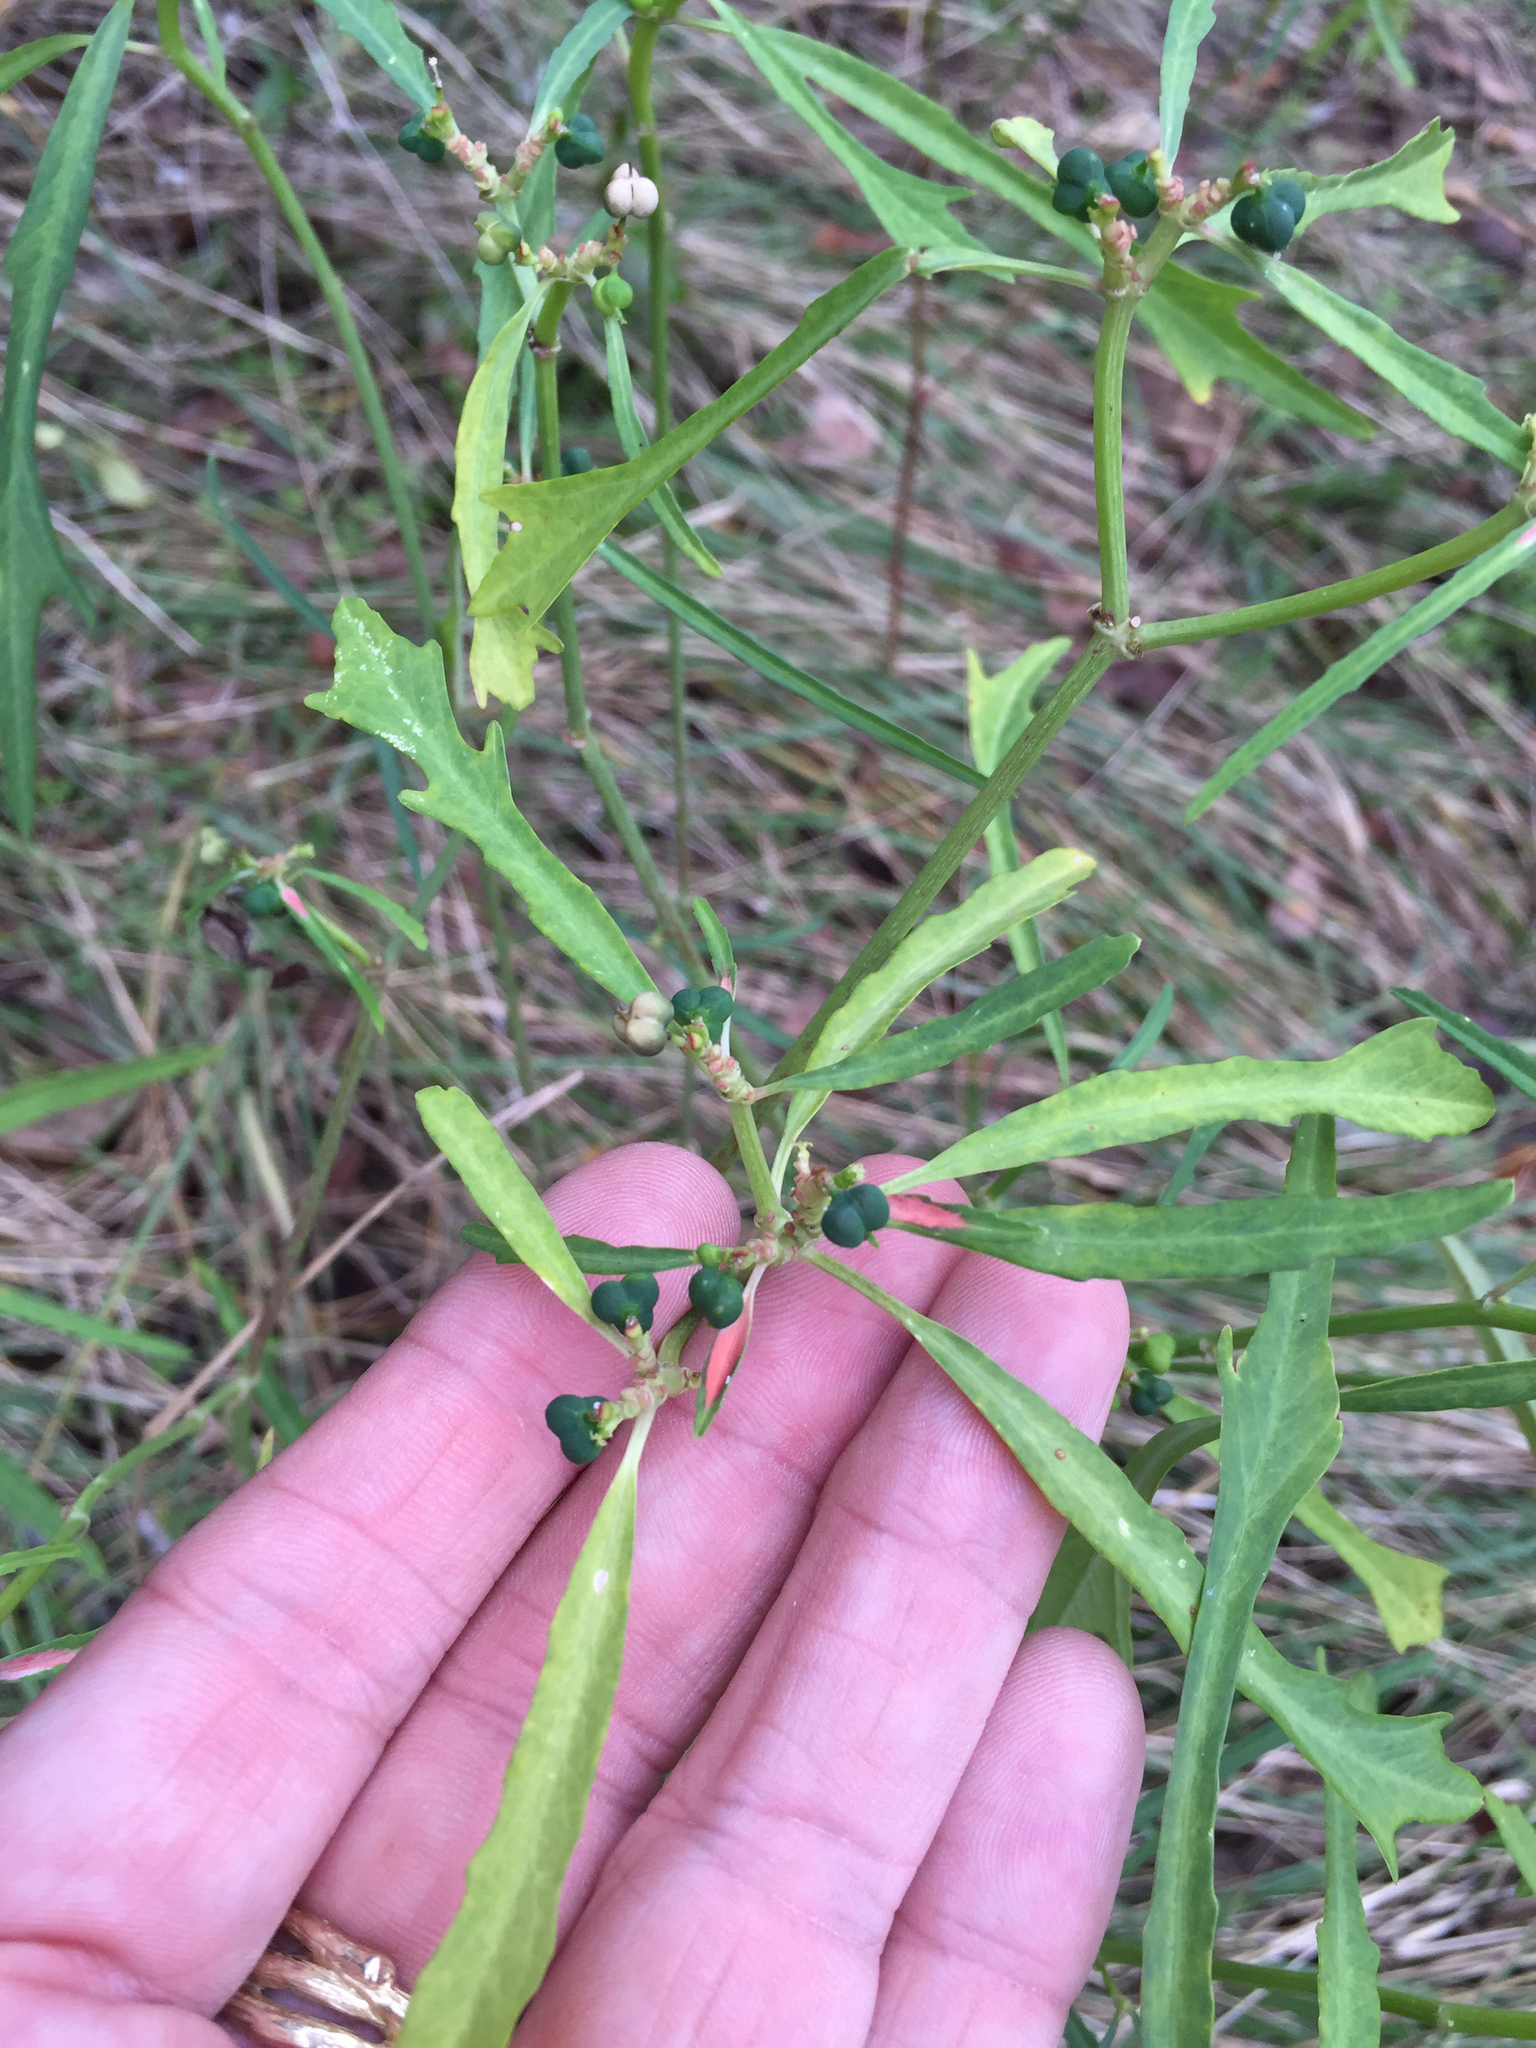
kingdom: Plantae
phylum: Tracheophyta
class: Magnoliopsida
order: Malpighiales
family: Euphorbiaceae
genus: Euphorbia
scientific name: Euphorbia heterophylla
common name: Mexican fireplant
